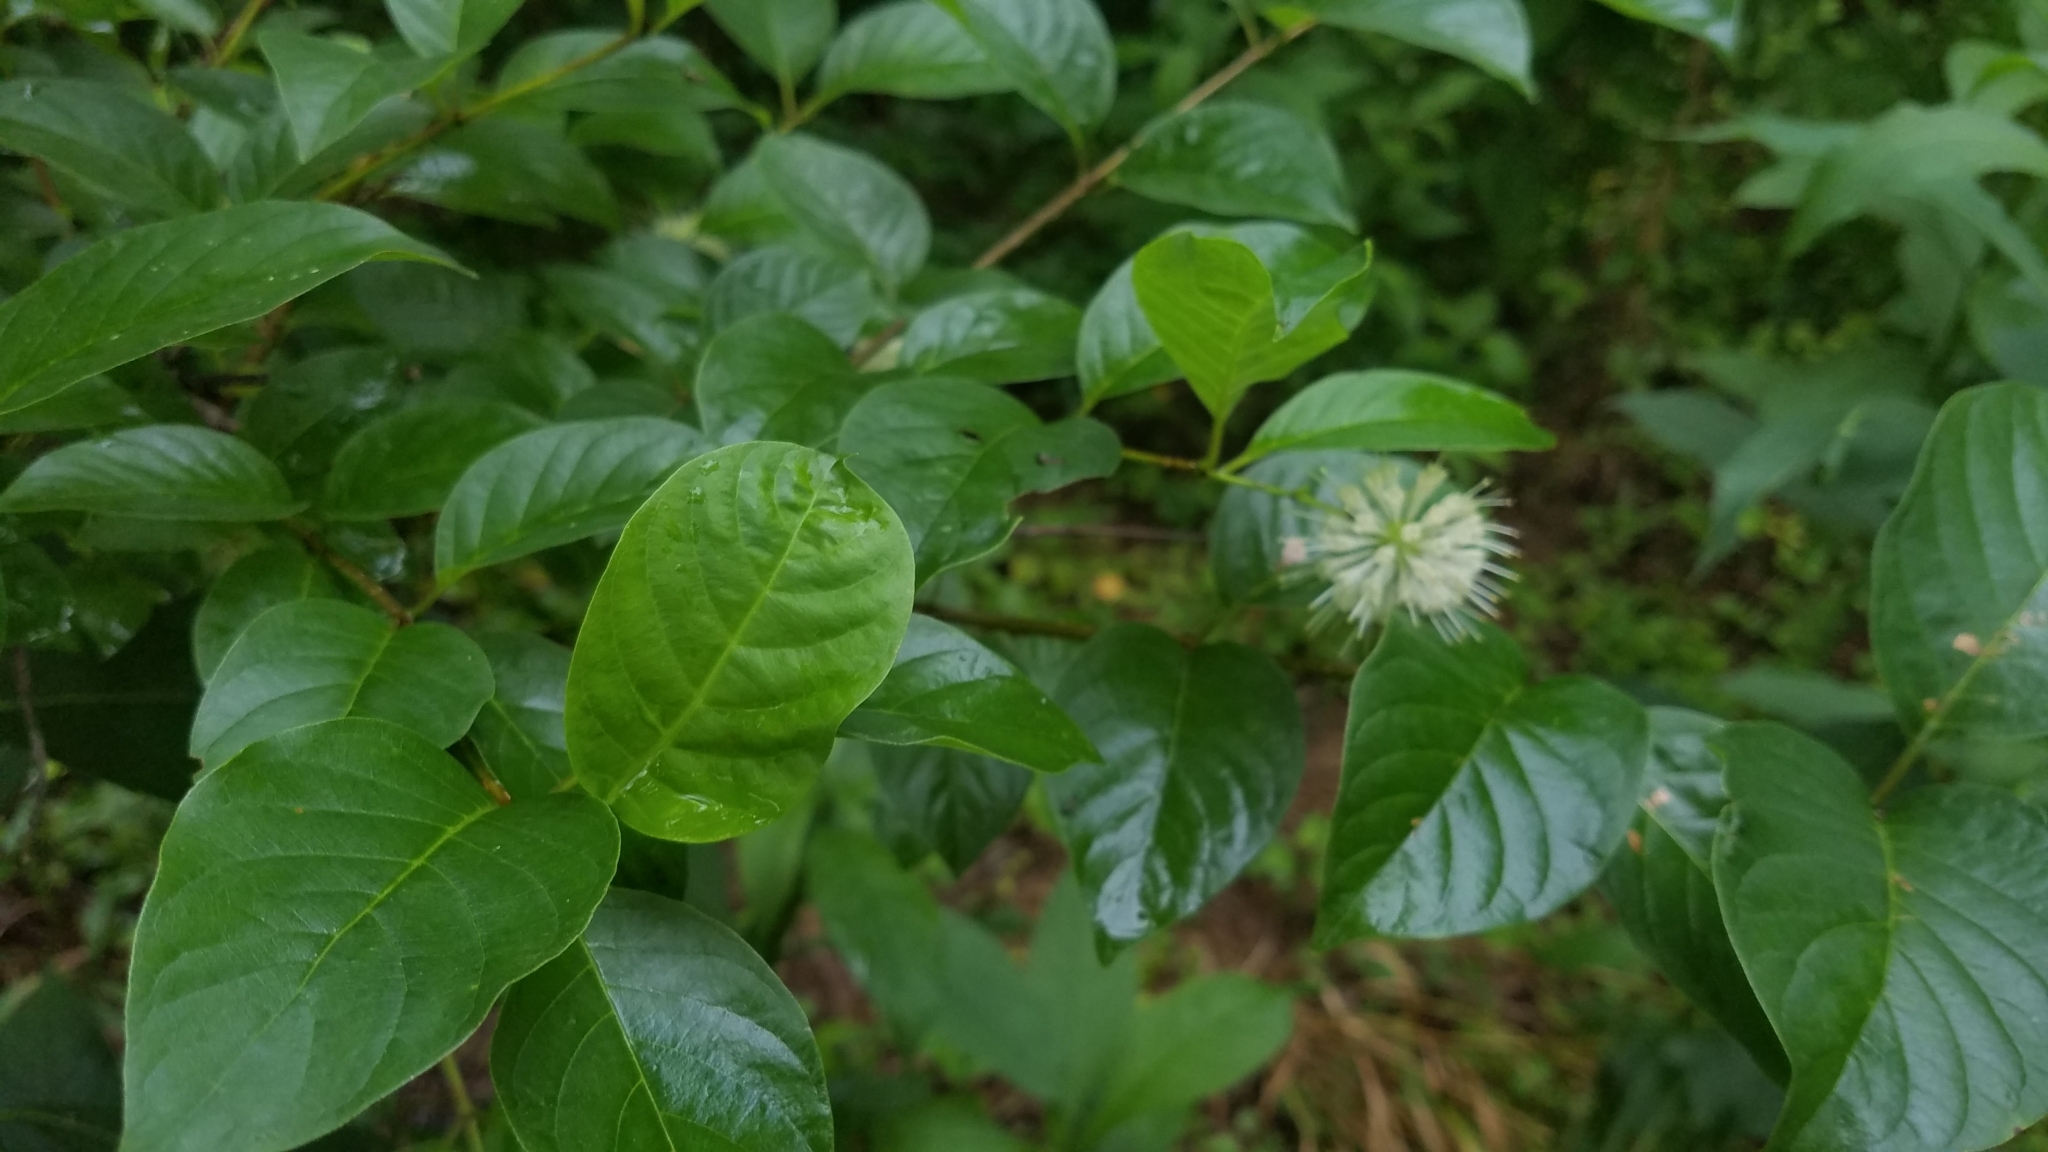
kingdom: Plantae
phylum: Tracheophyta
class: Magnoliopsida
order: Gentianales
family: Rubiaceae
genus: Cephalanthus
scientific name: Cephalanthus occidentalis
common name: Button-willow
